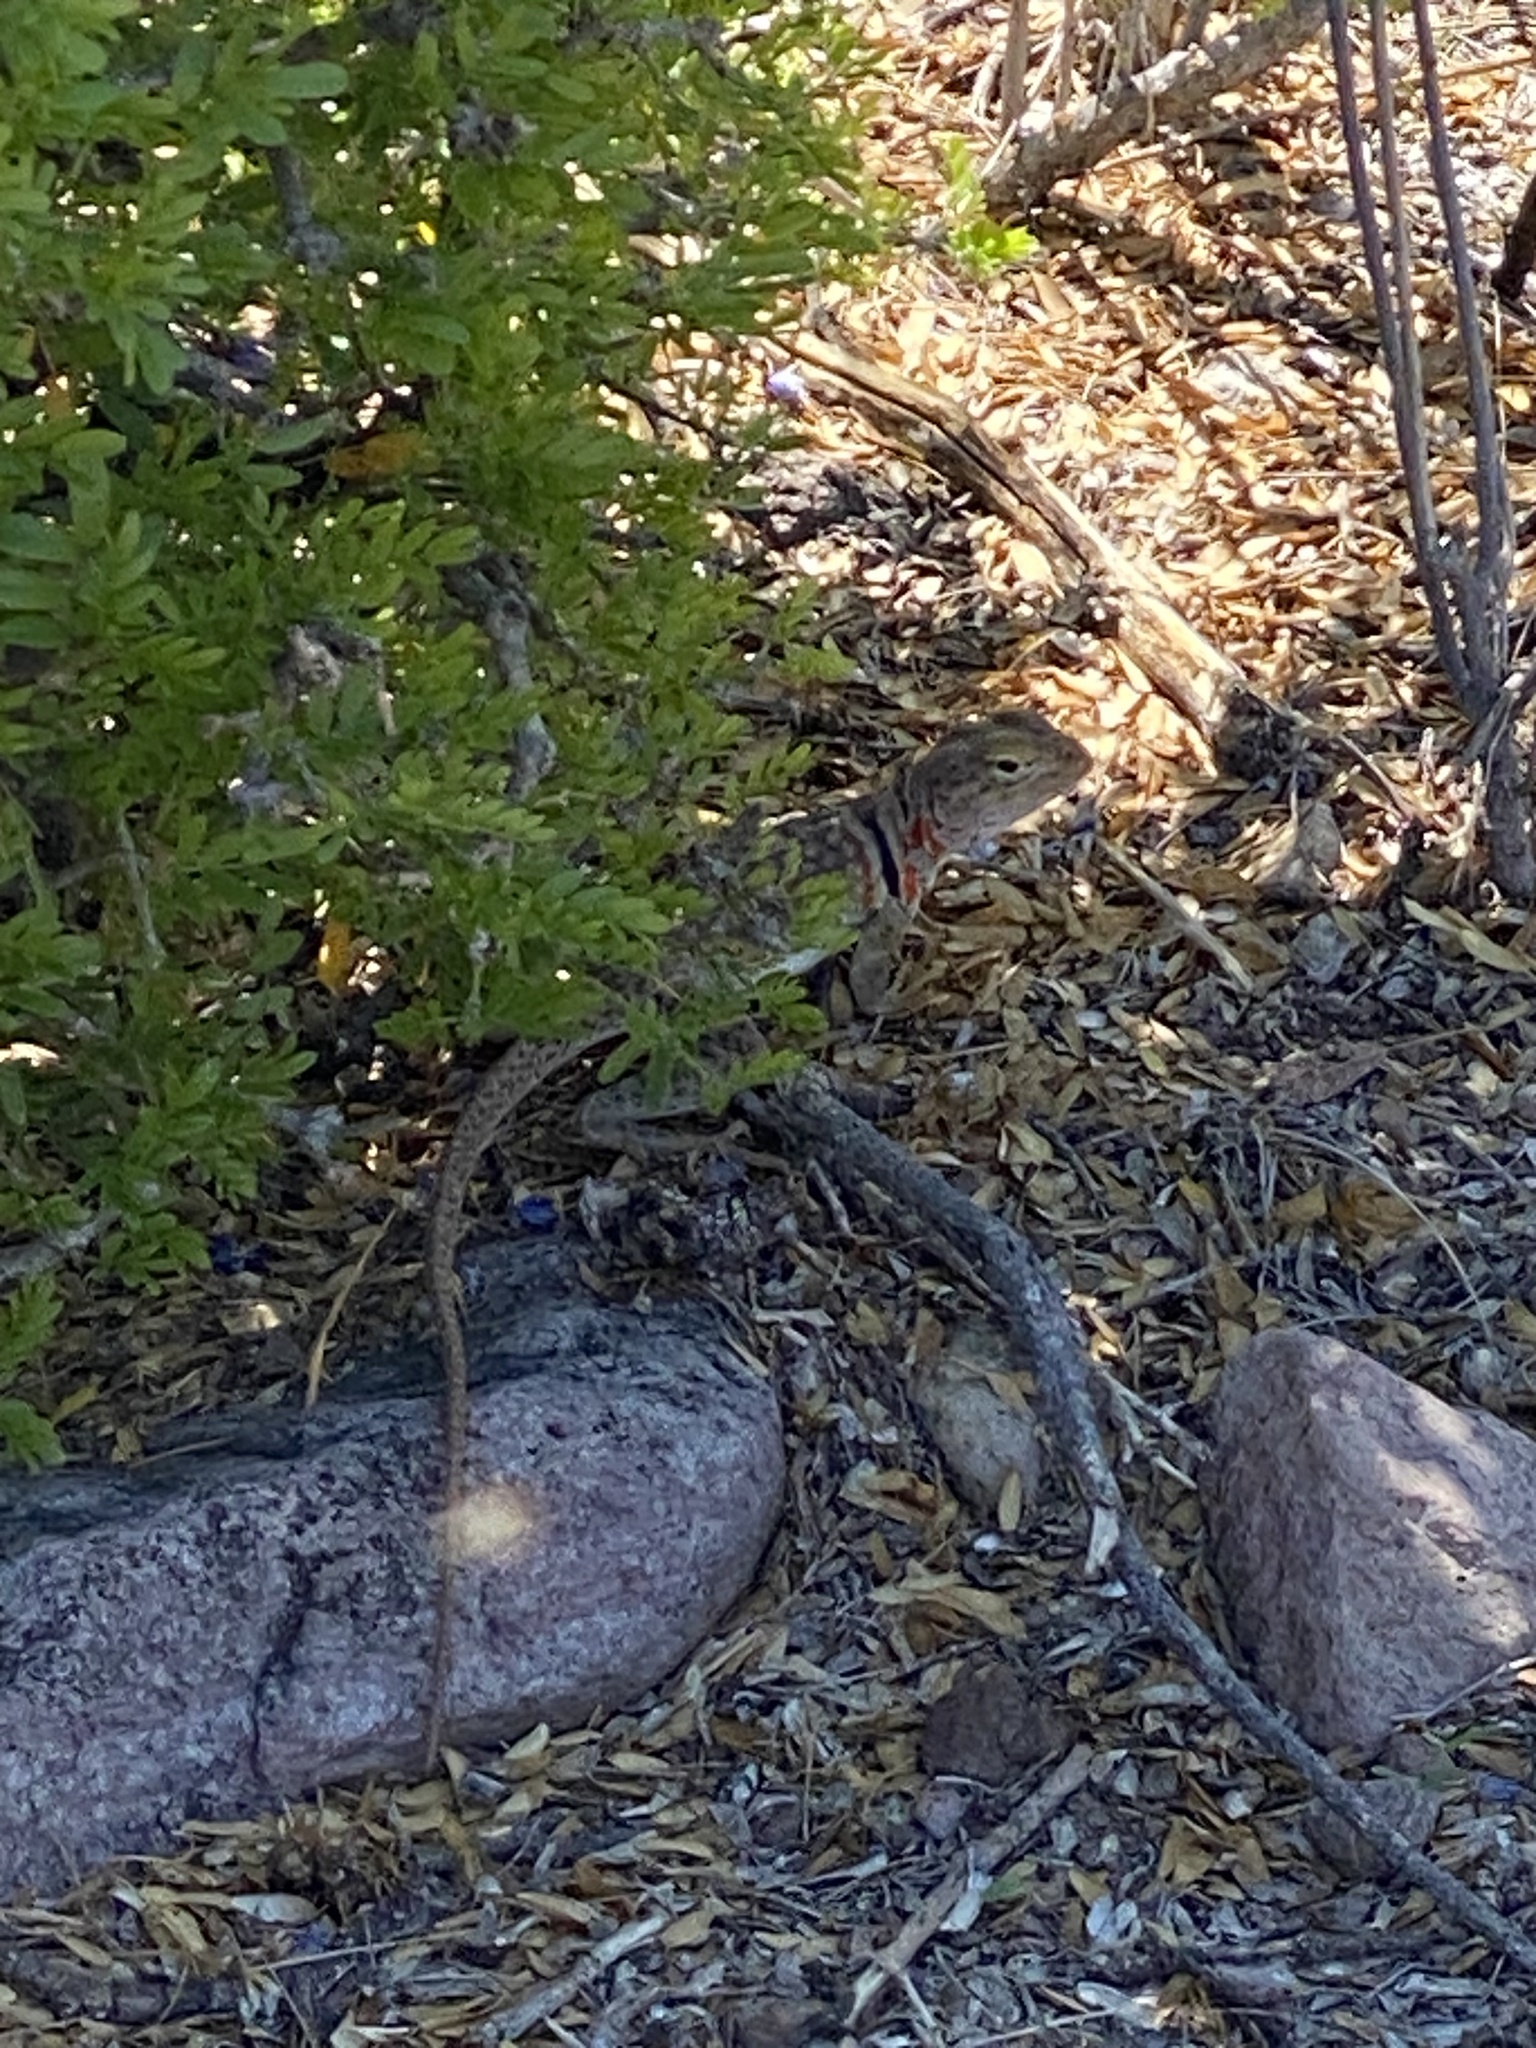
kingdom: Animalia
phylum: Chordata
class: Squamata
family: Crotaphytidae
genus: Crotaphytus
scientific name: Crotaphytus nebrius
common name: Sonoran collared lizard
